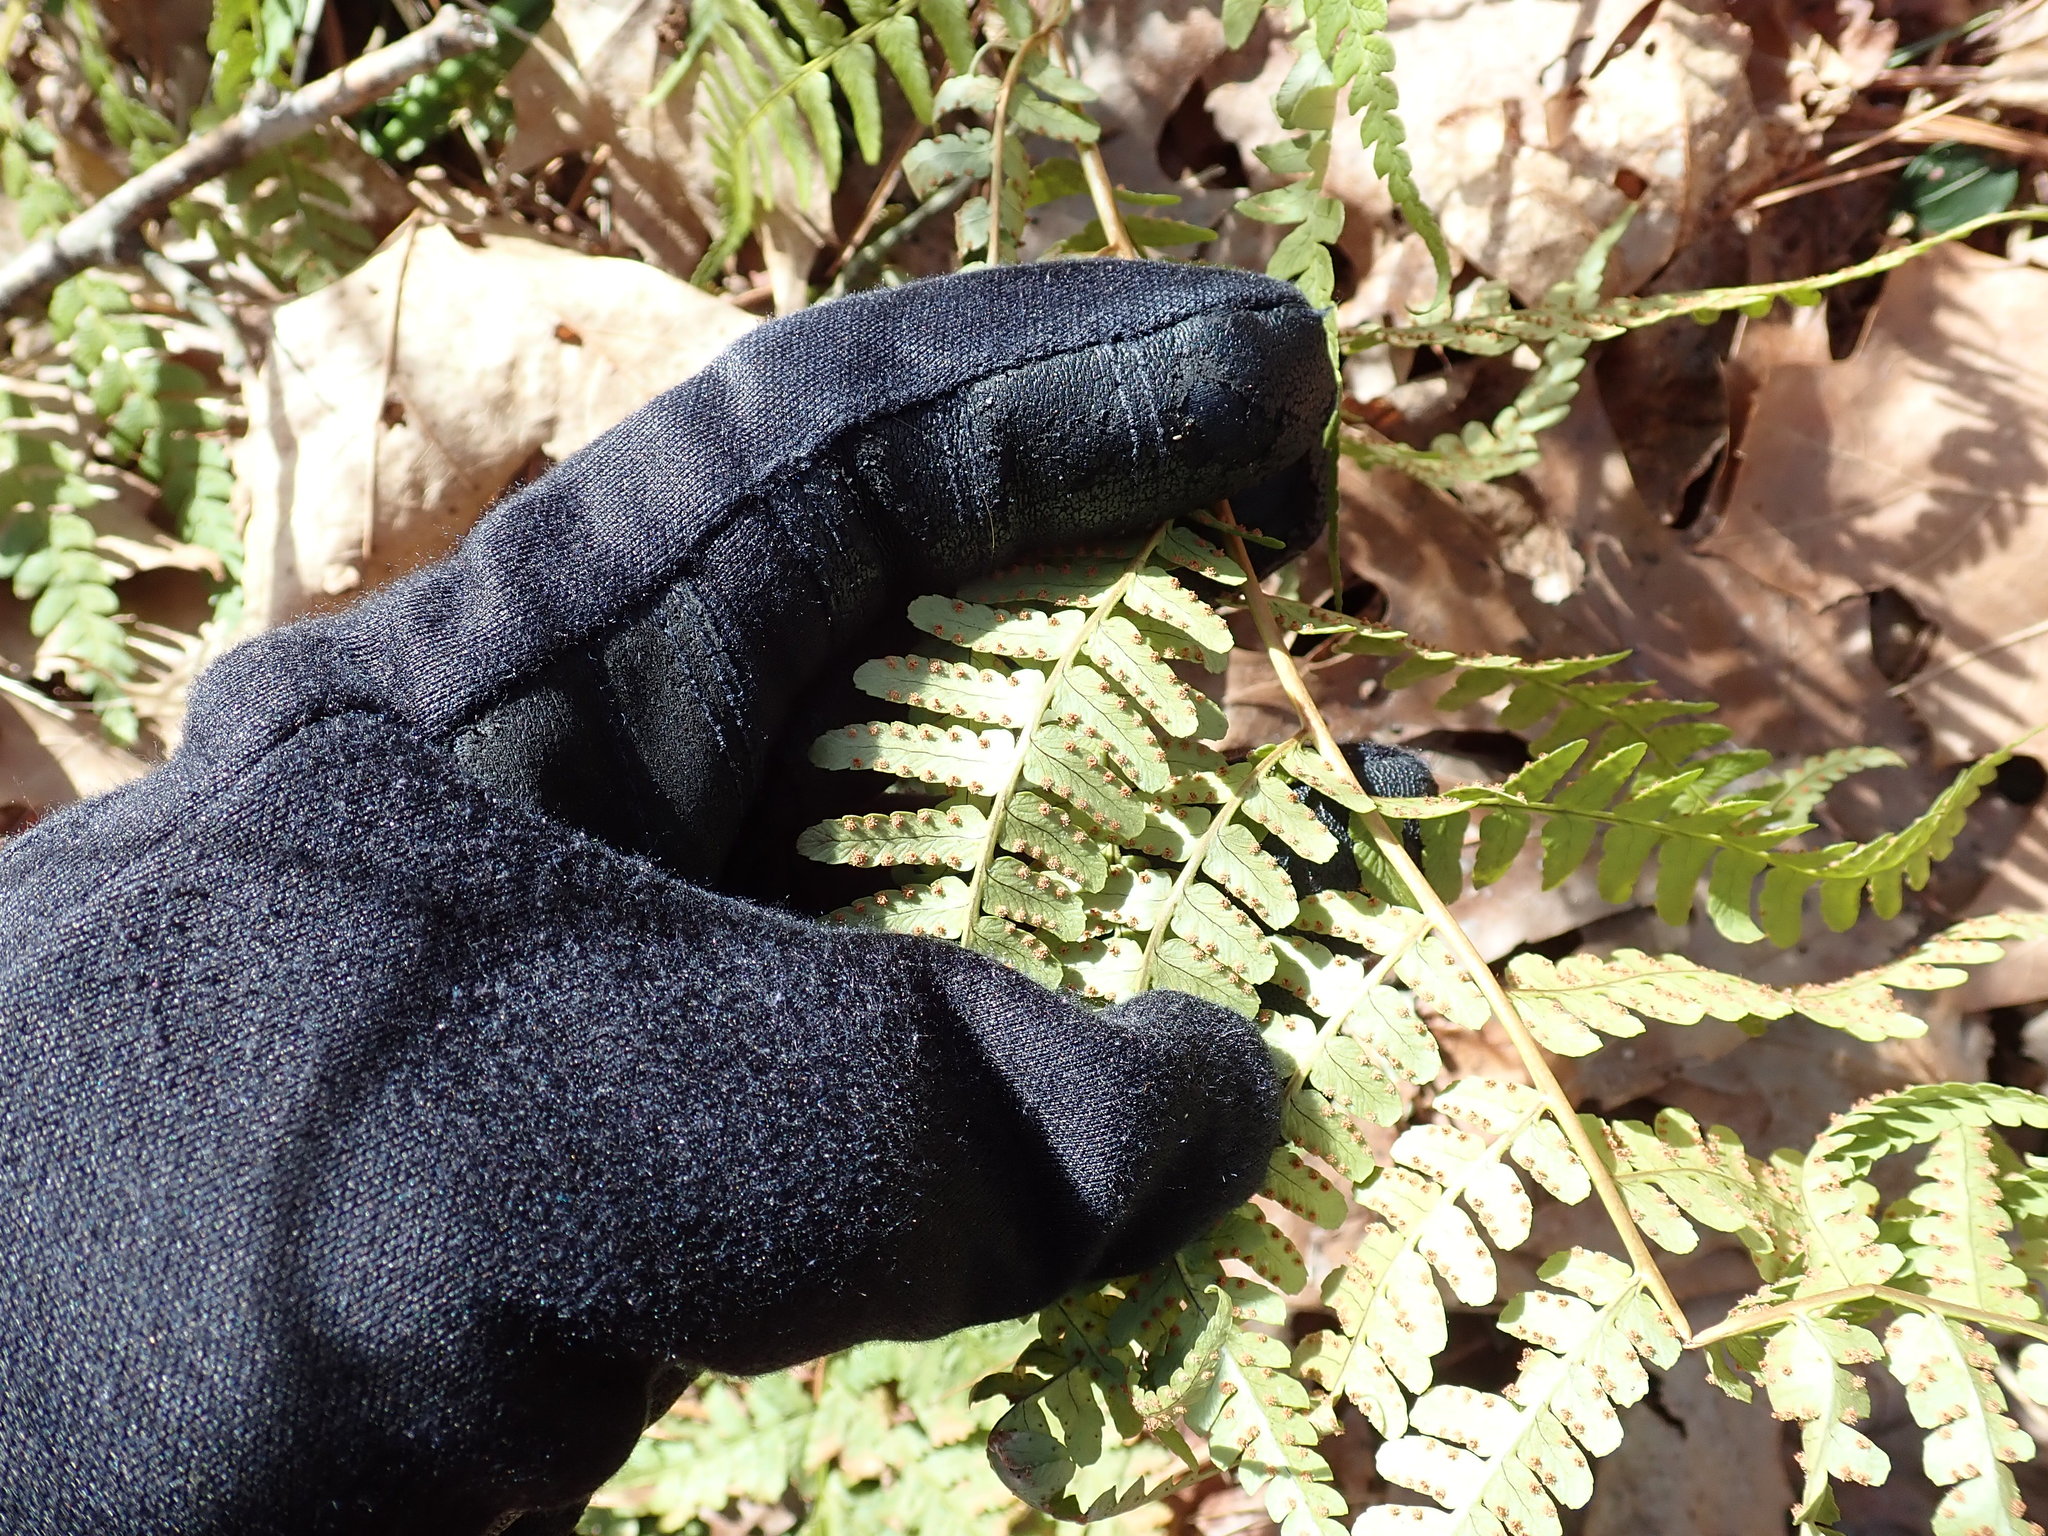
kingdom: Plantae
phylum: Tracheophyta
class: Polypodiopsida
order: Polypodiales
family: Dryopteridaceae
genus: Dryopteris
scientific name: Dryopteris marginalis
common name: Marginal wood fern
